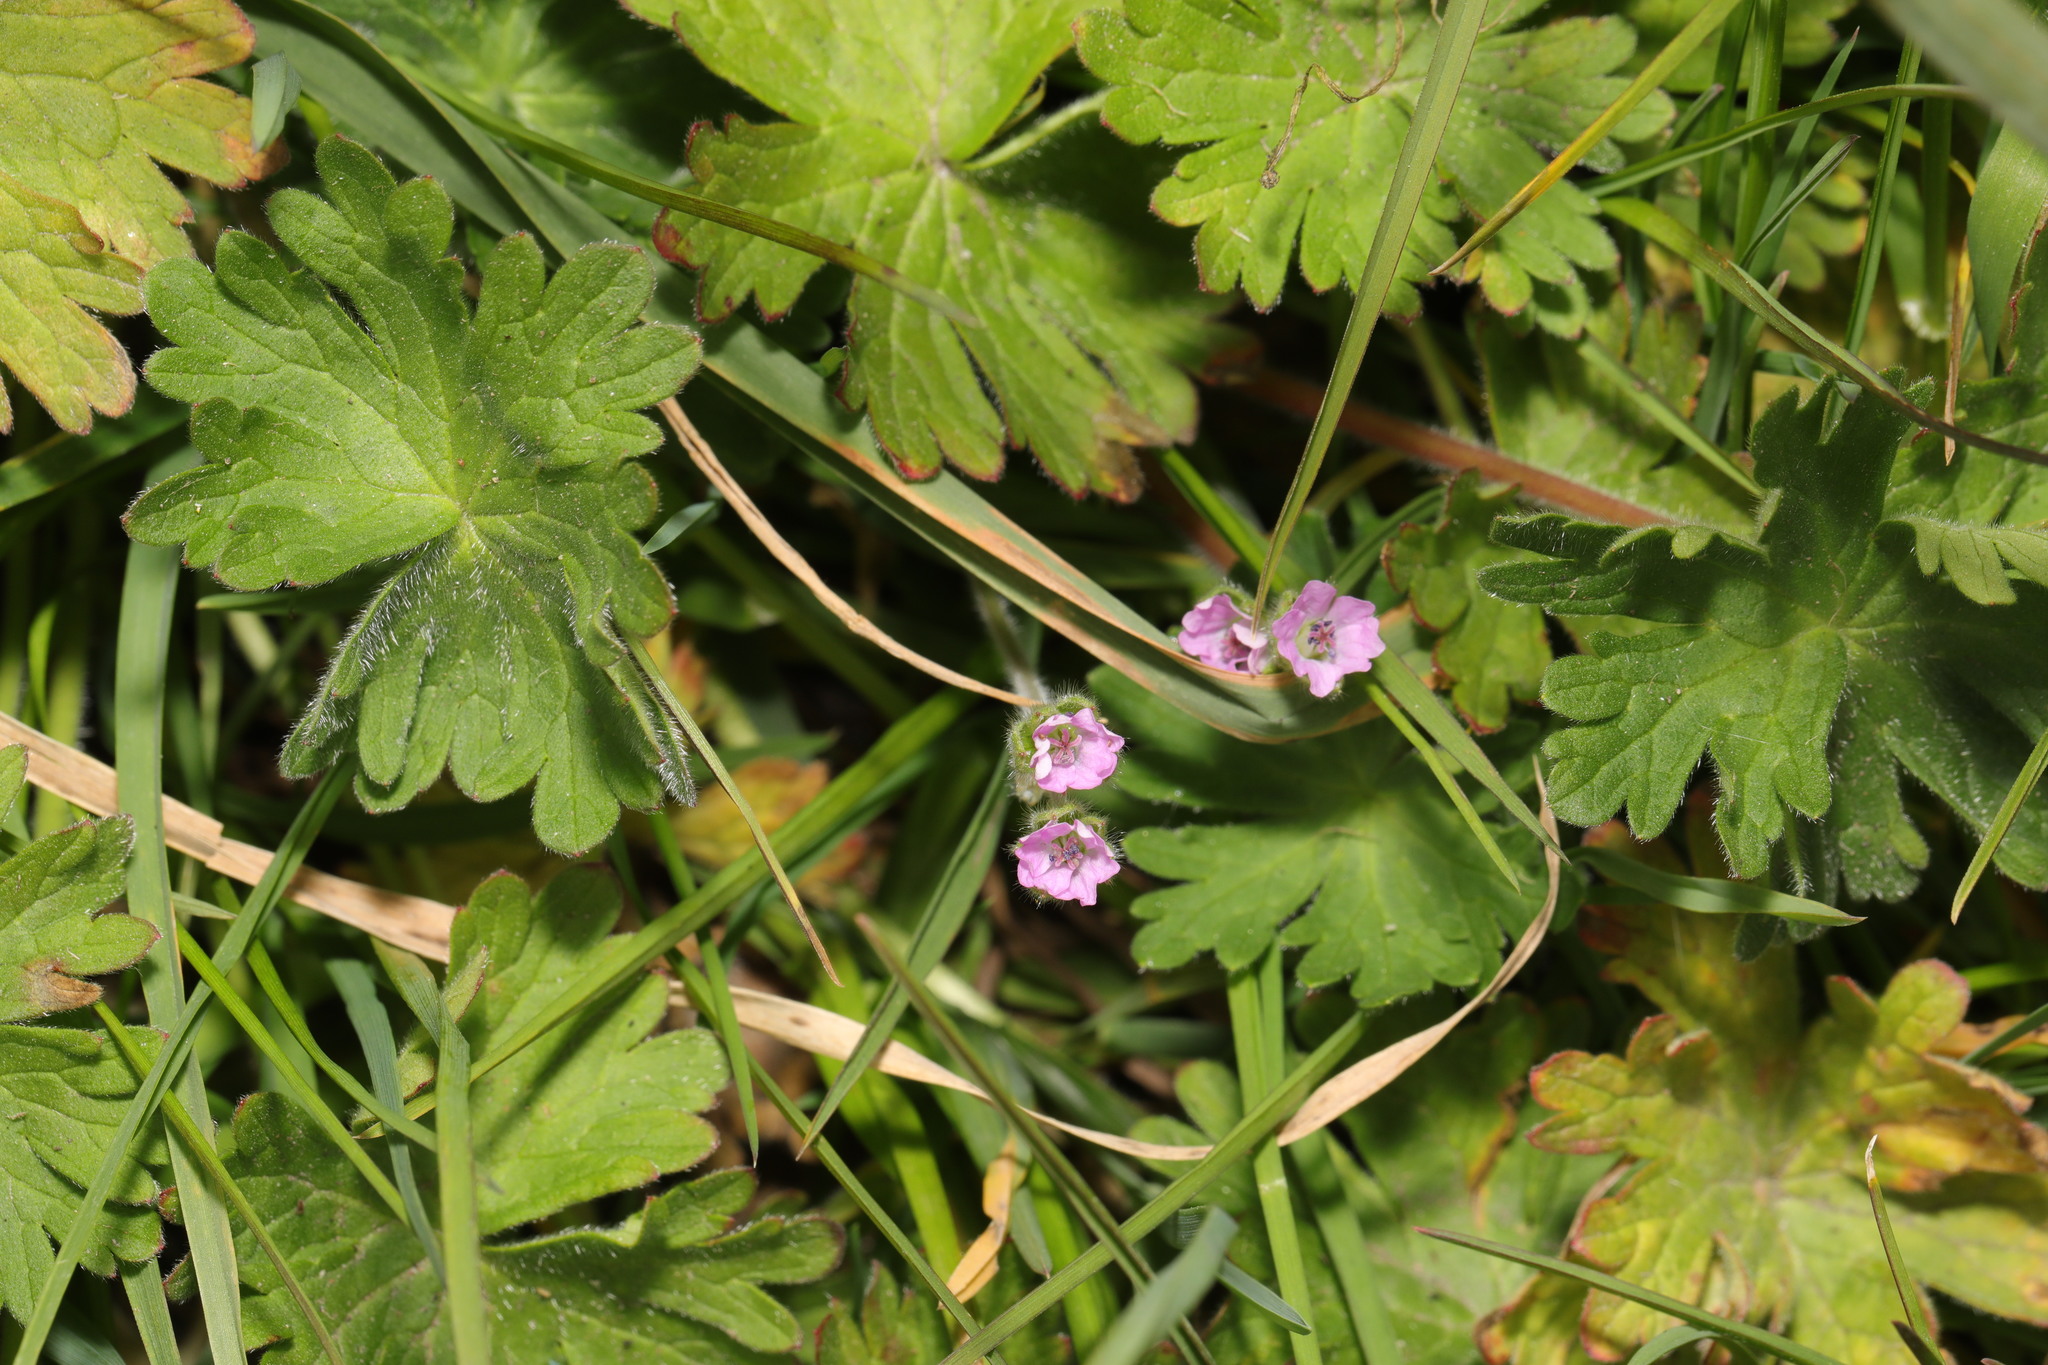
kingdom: Plantae
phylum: Tracheophyta
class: Magnoliopsida
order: Geraniales
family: Geraniaceae
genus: Geranium
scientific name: Geranium molle
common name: Dove's-foot crane's-bill
